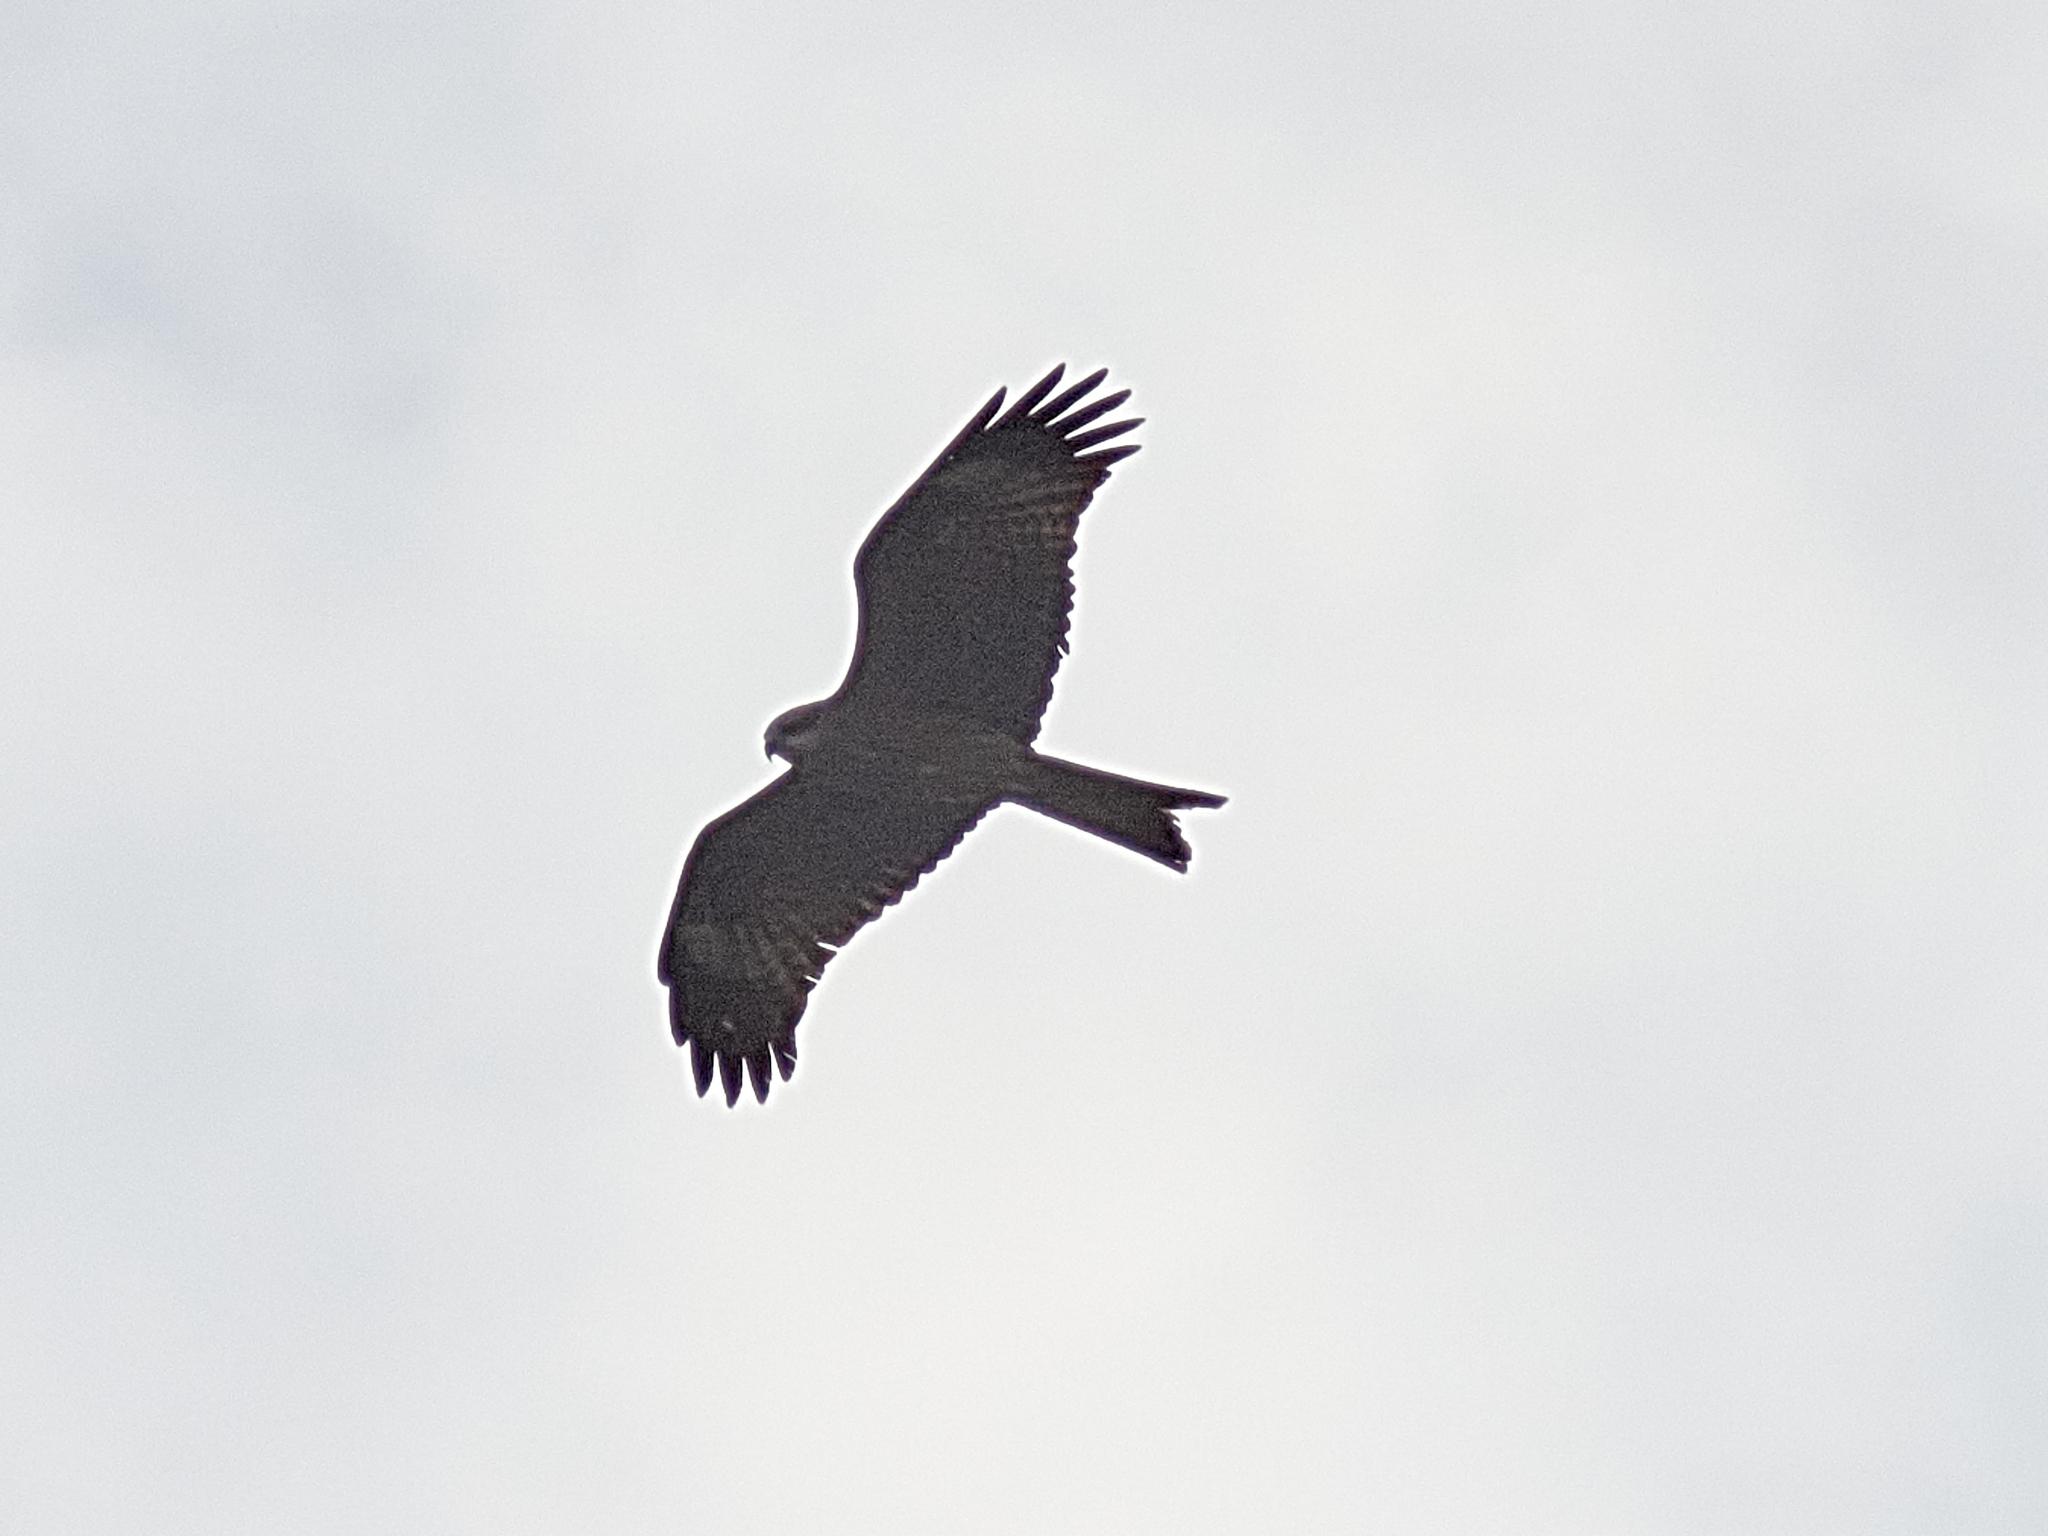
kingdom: Animalia
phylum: Chordata
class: Aves
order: Accipitriformes
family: Accipitridae
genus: Milvus
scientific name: Milvus migrans
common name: Black kite
